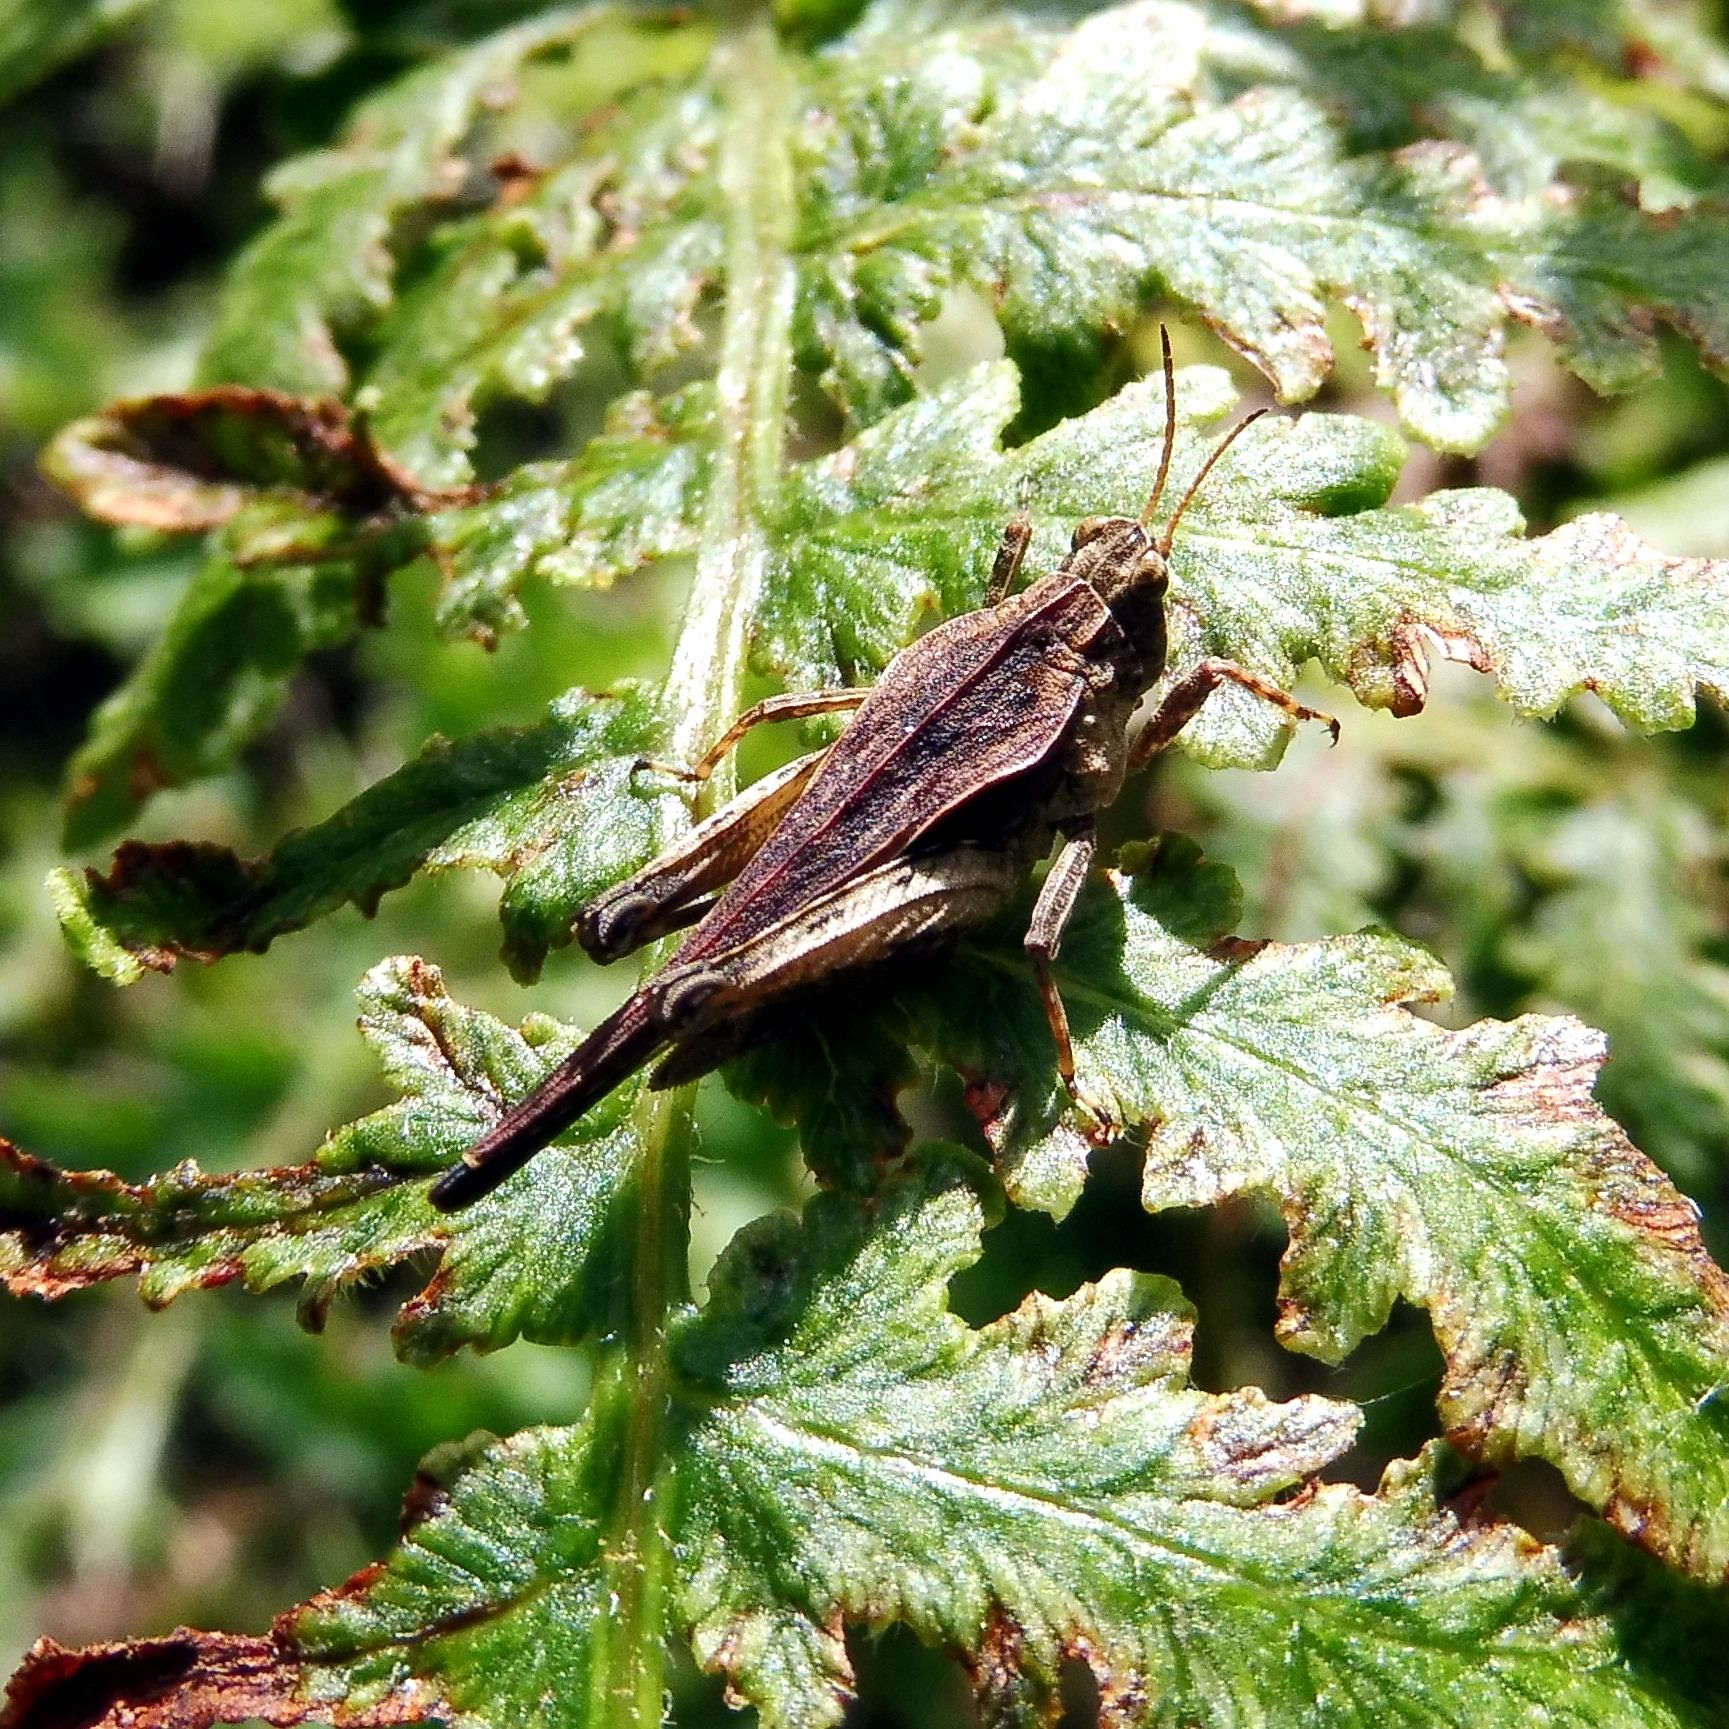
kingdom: Animalia
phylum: Arthropoda
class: Insecta
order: Orthoptera
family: Tetrigidae
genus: Tetrix
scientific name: Tetrix subulata
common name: Slender ground-hopper
